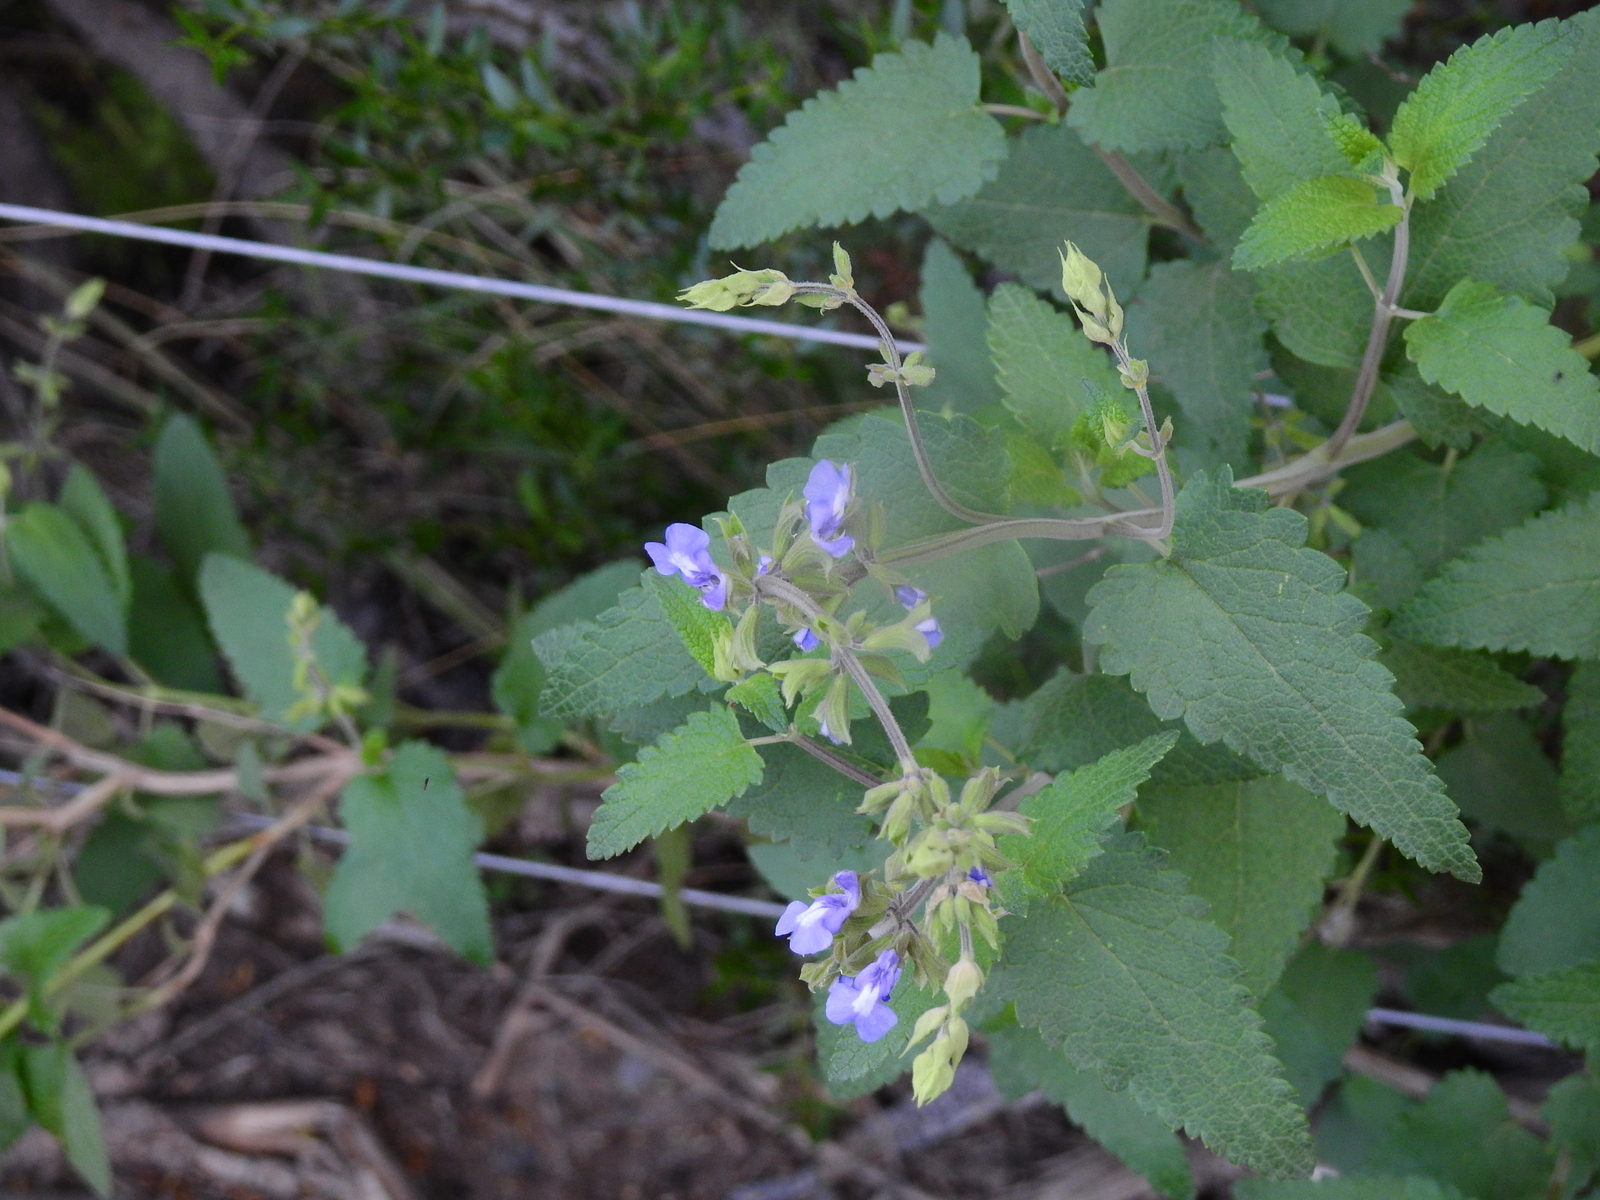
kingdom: Plantae
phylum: Tracheophyta
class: Magnoliopsida
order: Lamiales
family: Lamiaceae
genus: Salvia
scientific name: Salvia cuspidata
